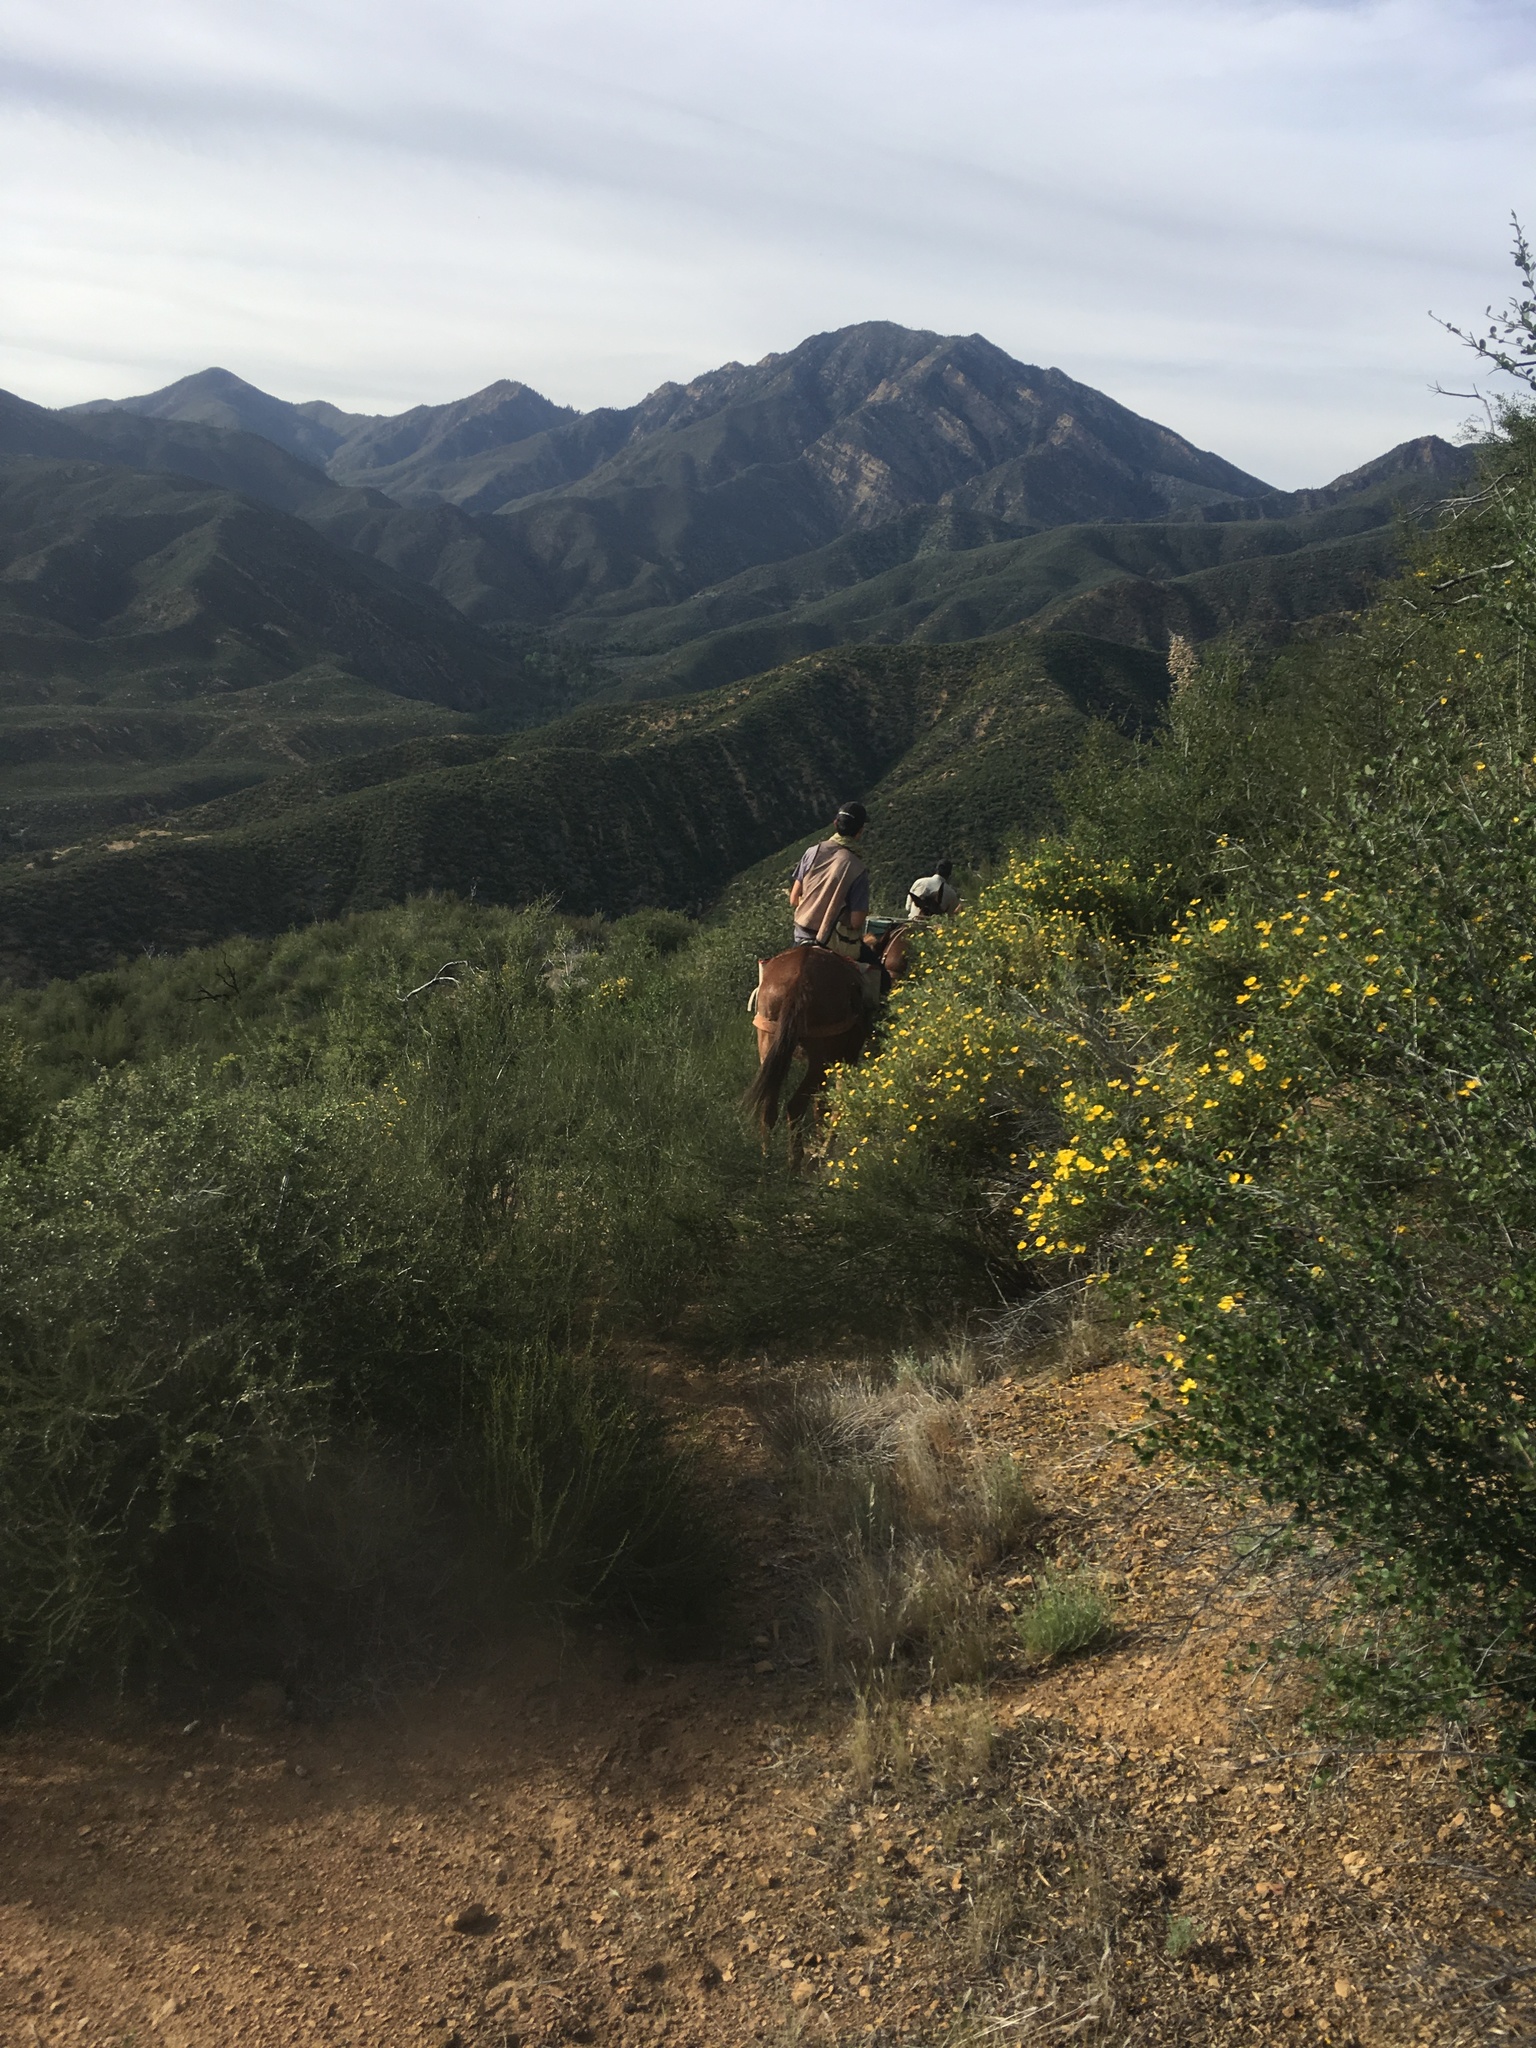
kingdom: Plantae
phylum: Tracheophyta
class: Magnoliopsida
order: Ranunculales
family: Papaveraceae
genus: Dendromecon
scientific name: Dendromecon rigida
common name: Tree poppy
